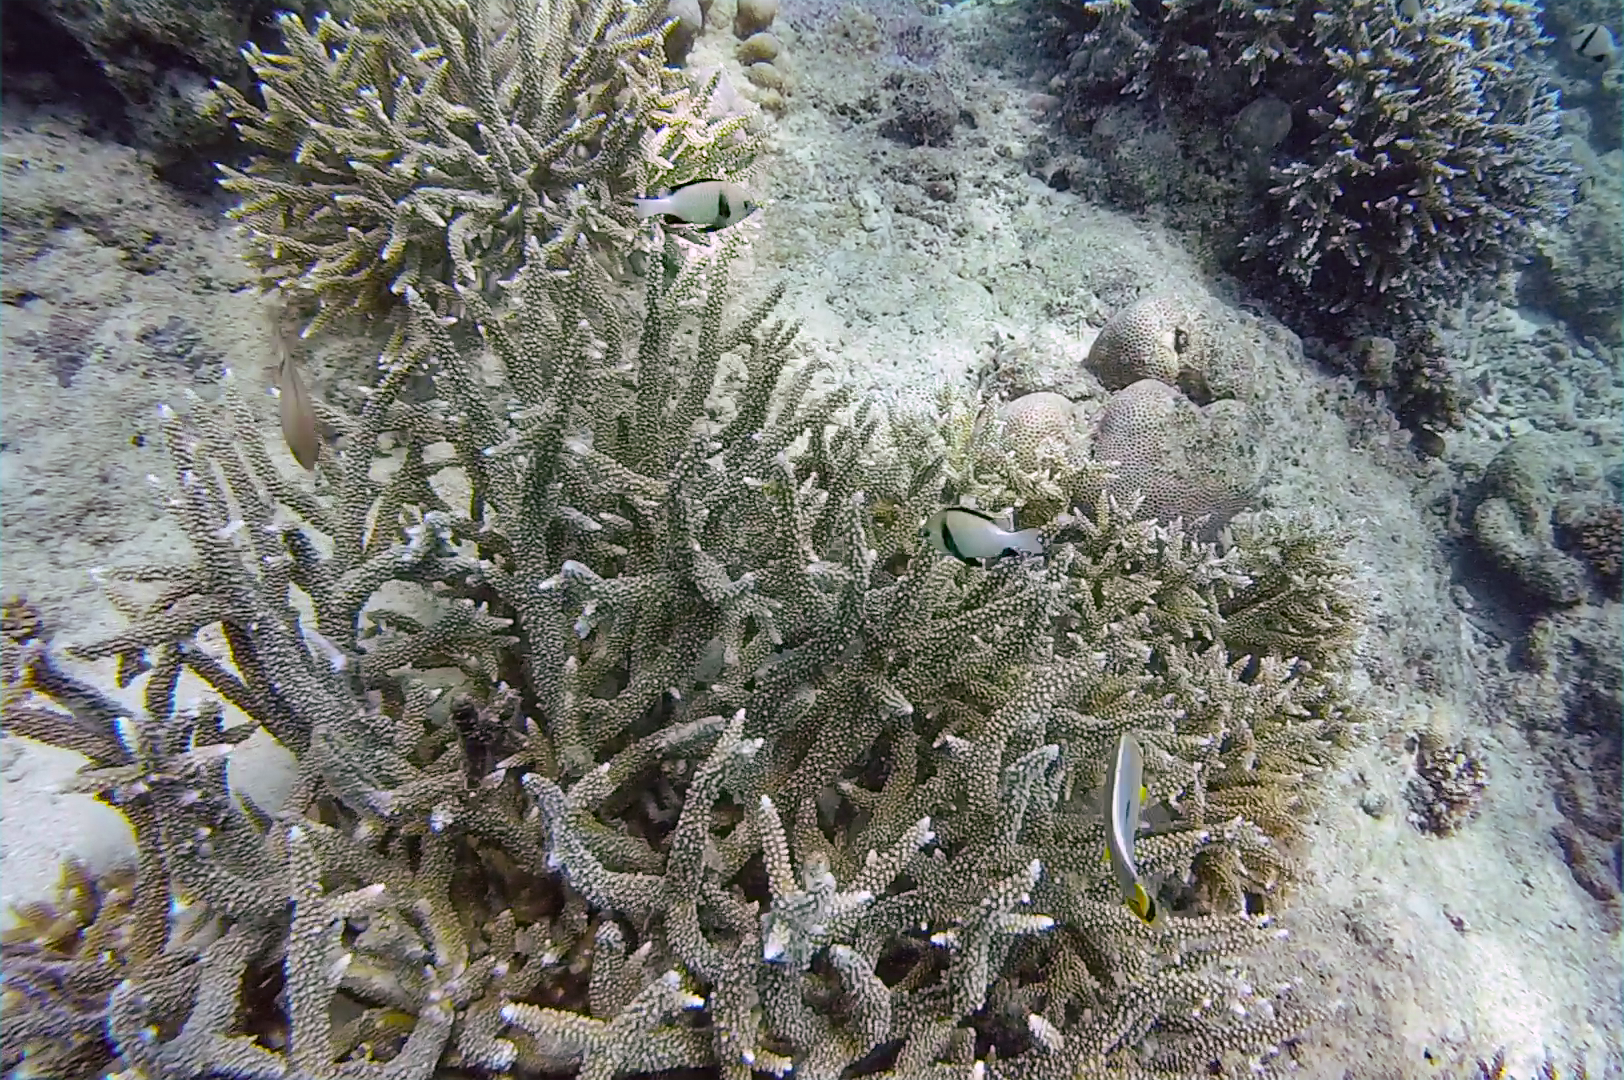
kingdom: Animalia
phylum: Chordata
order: Perciformes
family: Pomacentridae
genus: Dascyllus
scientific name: Dascyllus carneus
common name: Indian dascyllus
